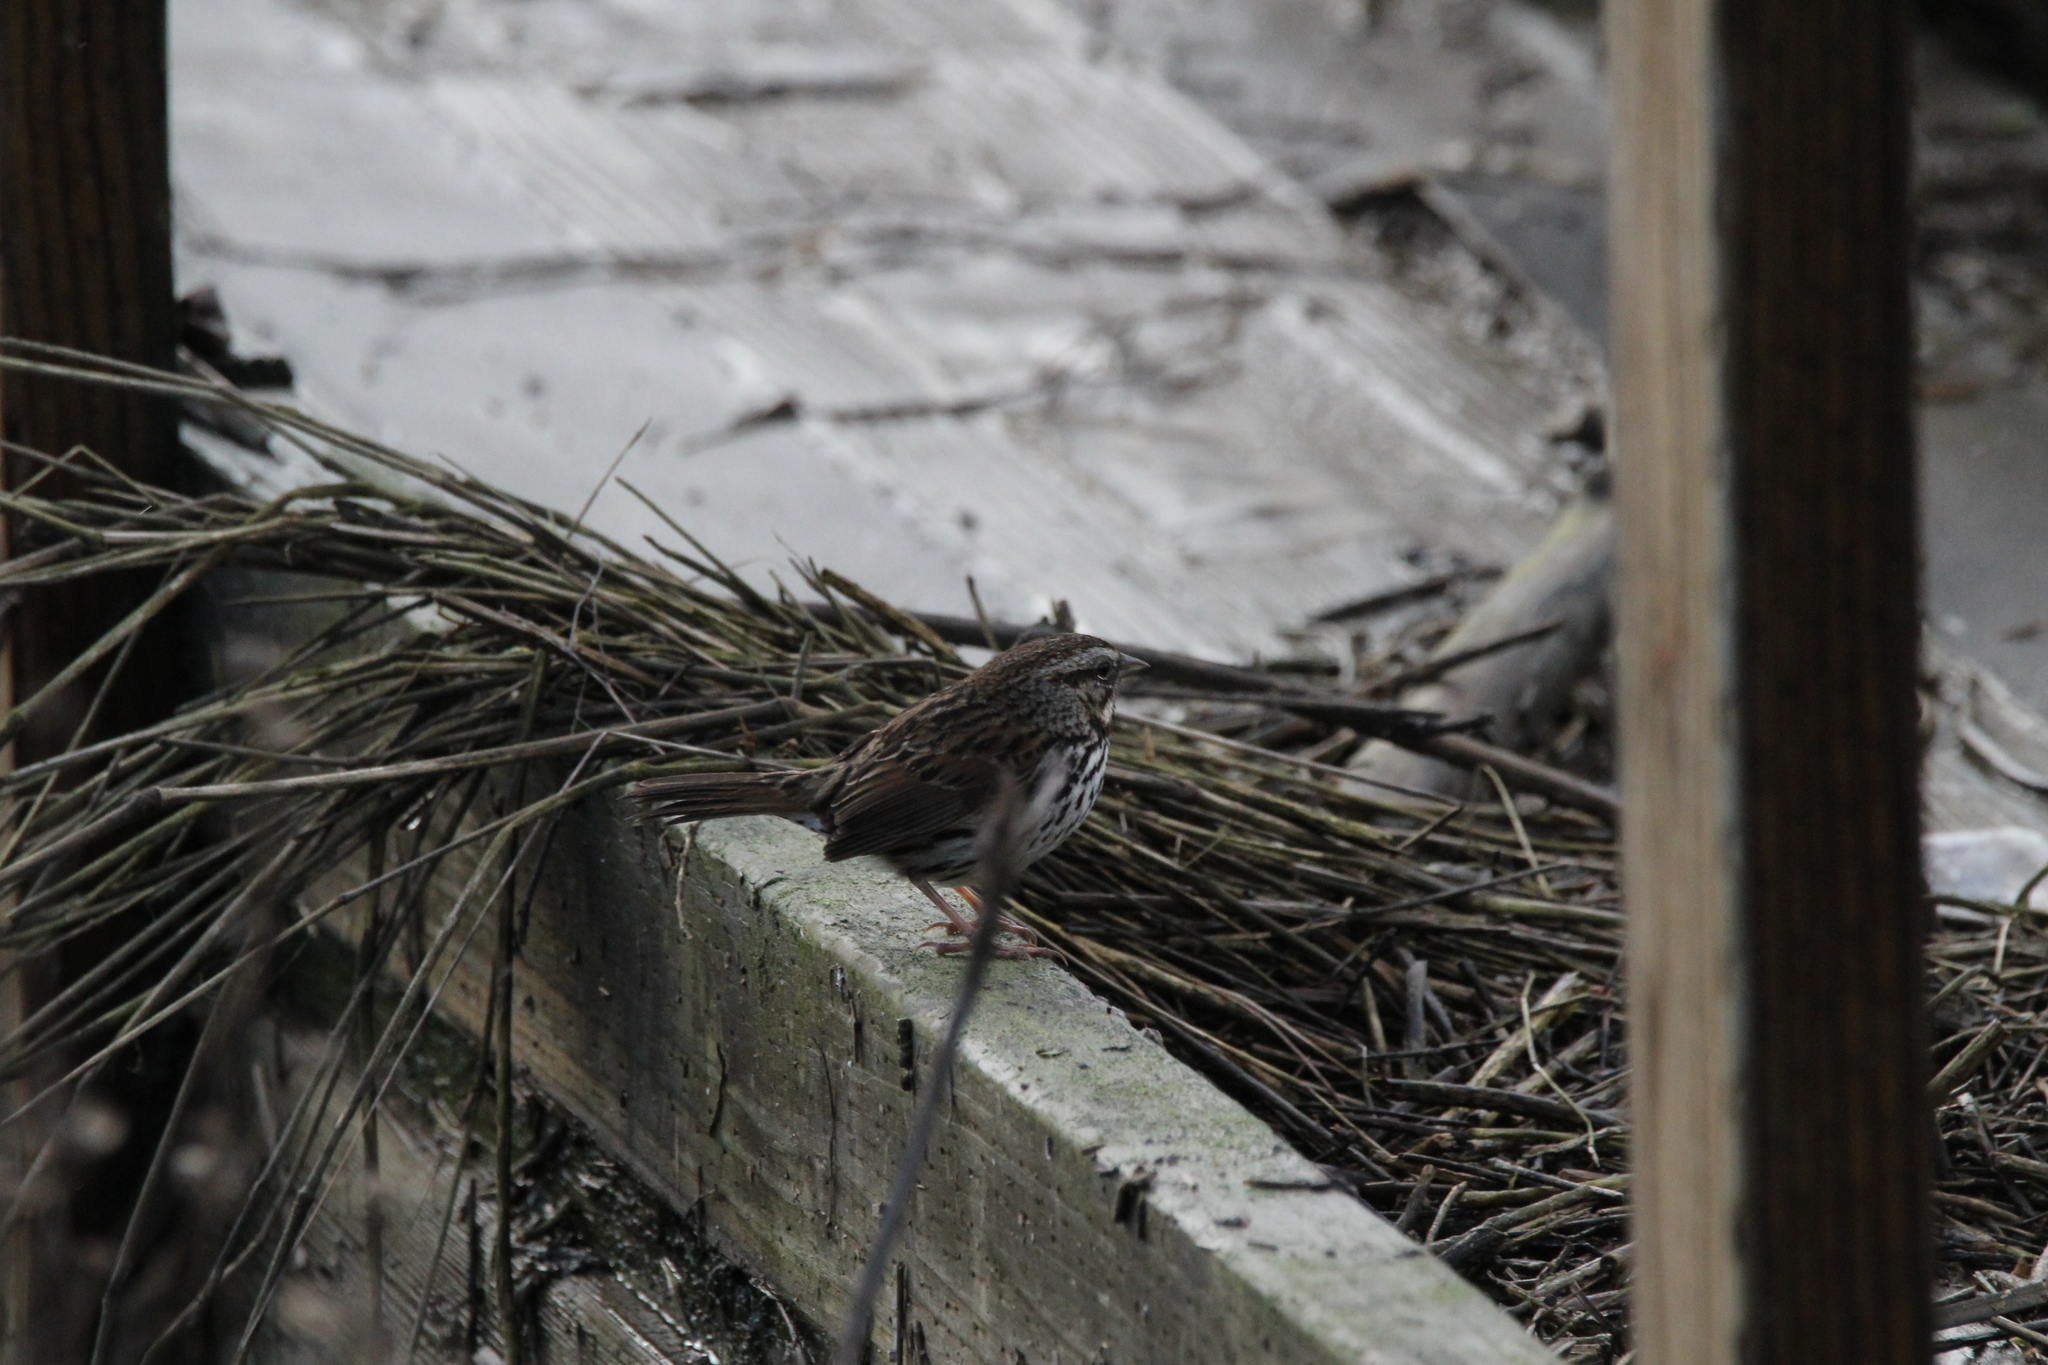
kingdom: Animalia
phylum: Chordata
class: Aves
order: Passeriformes
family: Passerellidae
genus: Melospiza
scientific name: Melospiza melodia
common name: Song sparrow
